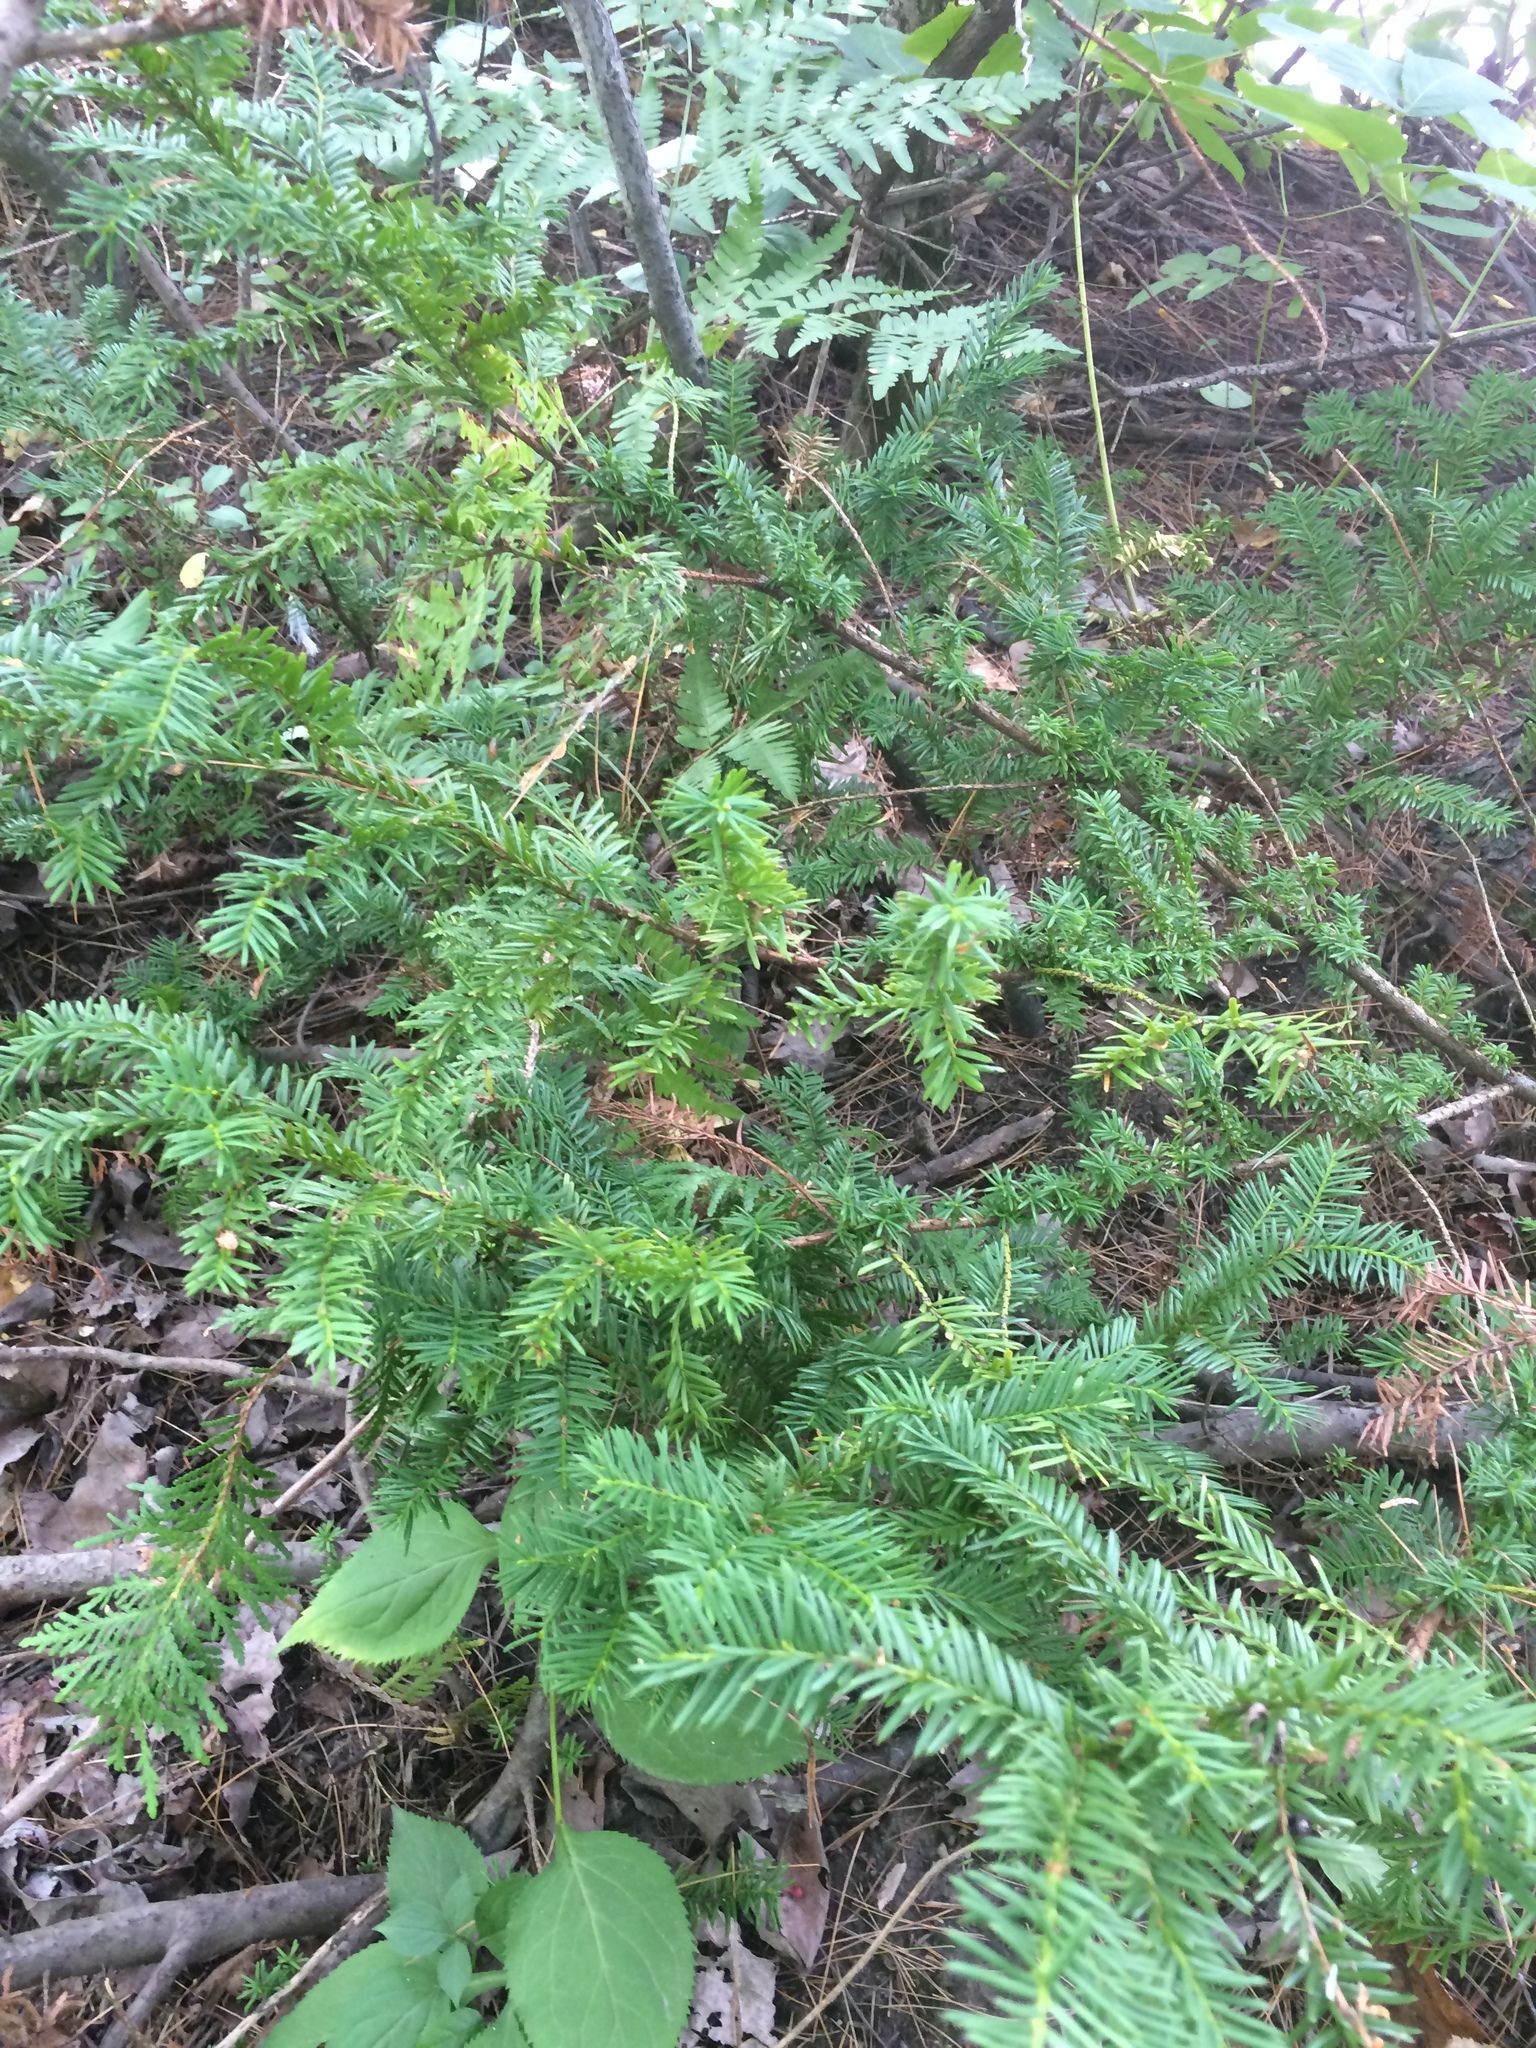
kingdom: Plantae
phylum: Tracheophyta
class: Pinopsida
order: Pinales
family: Taxaceae
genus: Taxus
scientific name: Taxus canadensis
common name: American yew
